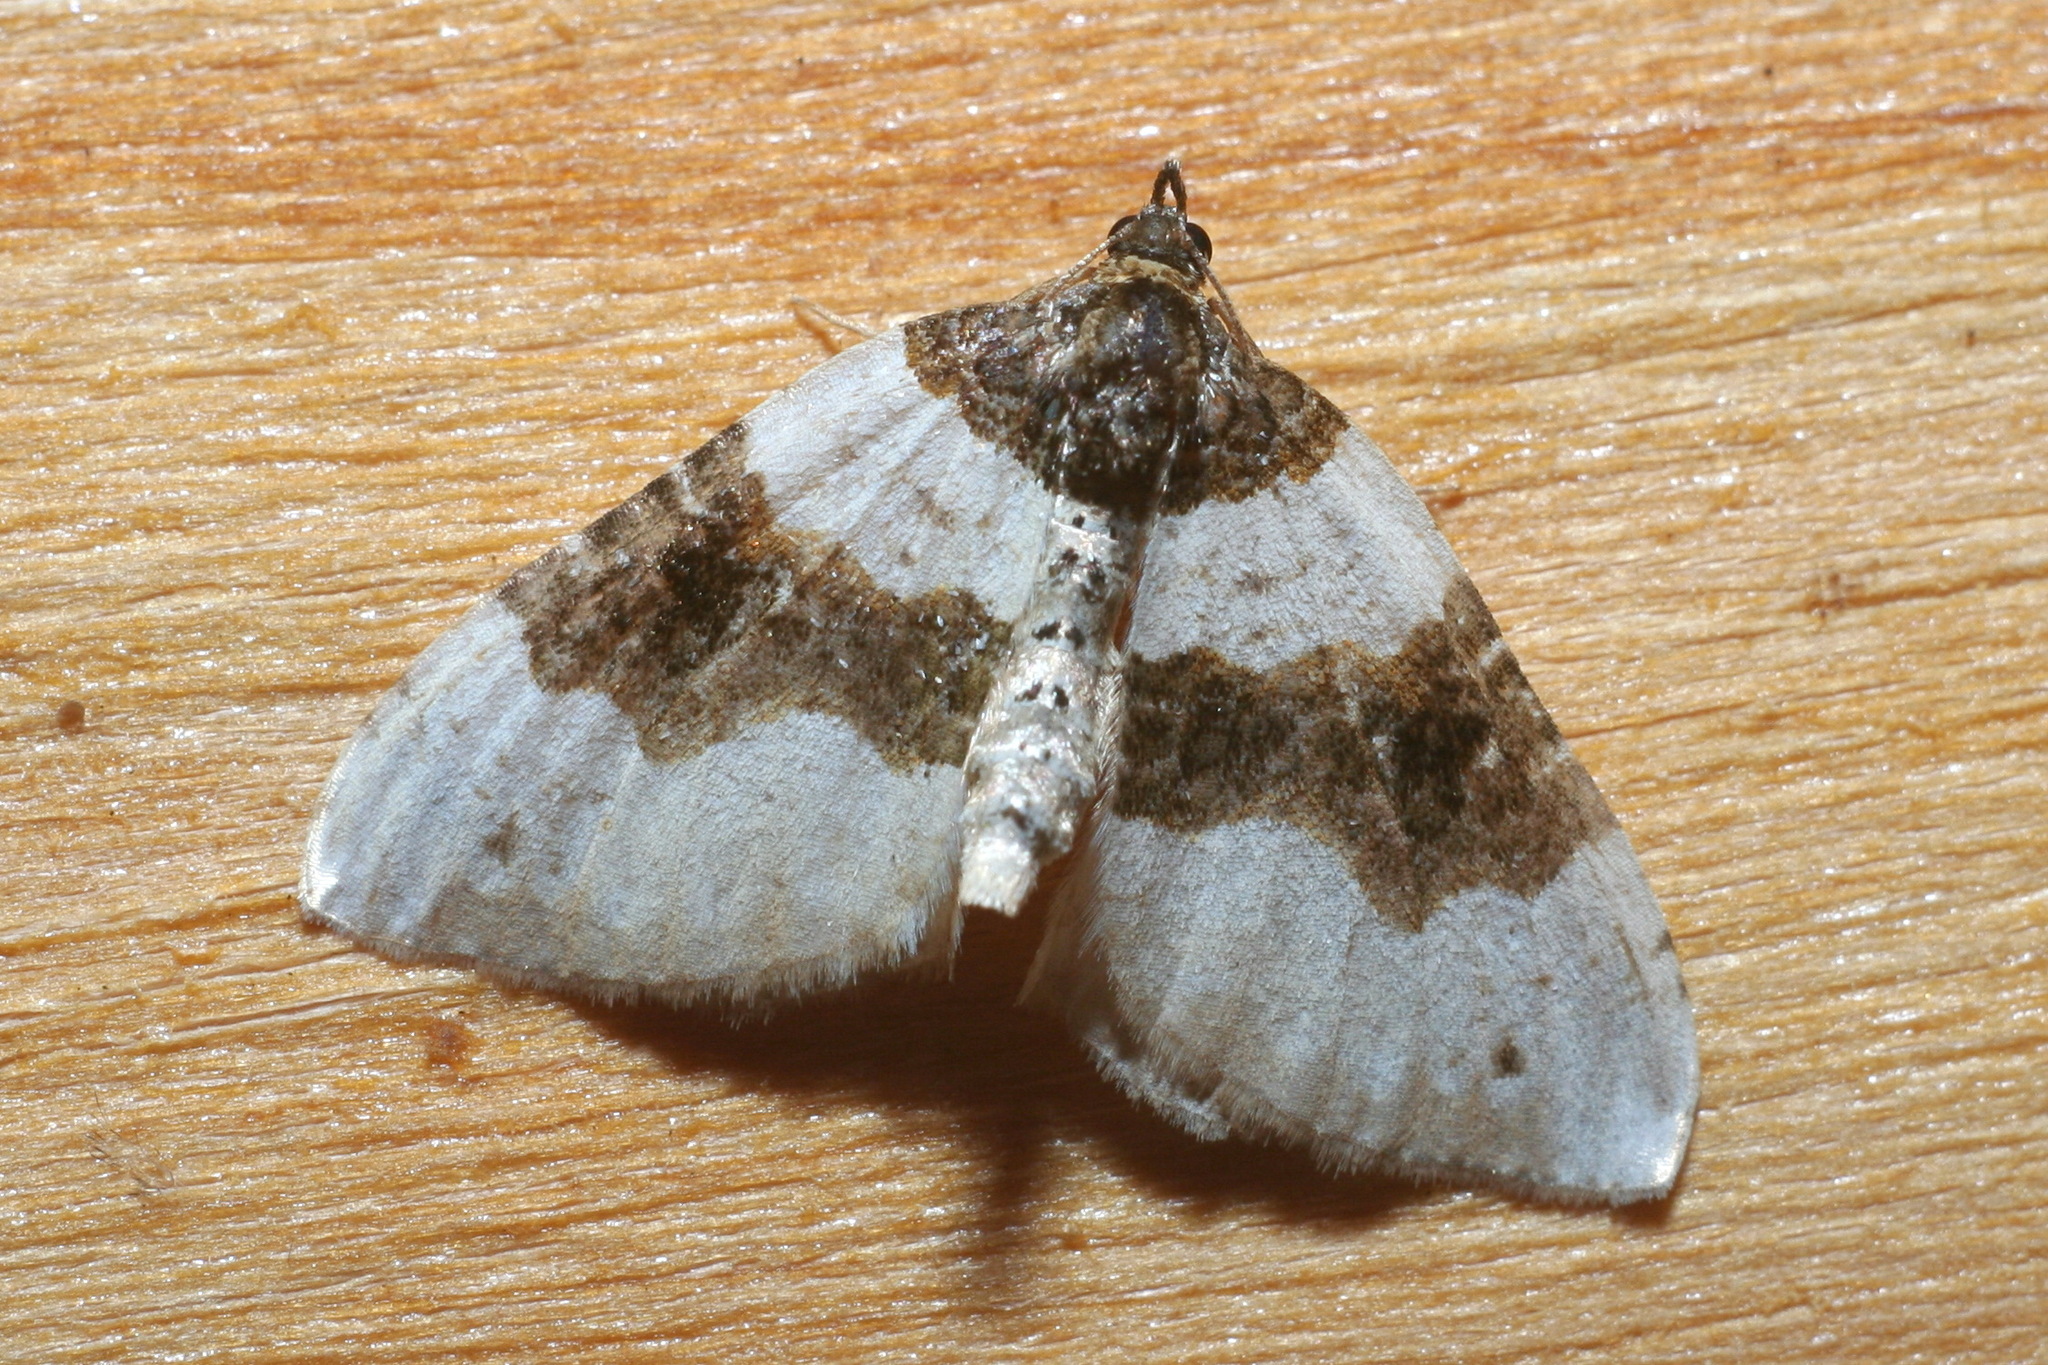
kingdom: Animalia
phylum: Arthropoda
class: Insecta
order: Lepidoptera
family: Geometridae
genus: Cosmorhoe
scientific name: Cosmorhoe ocellata
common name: Purple bar
